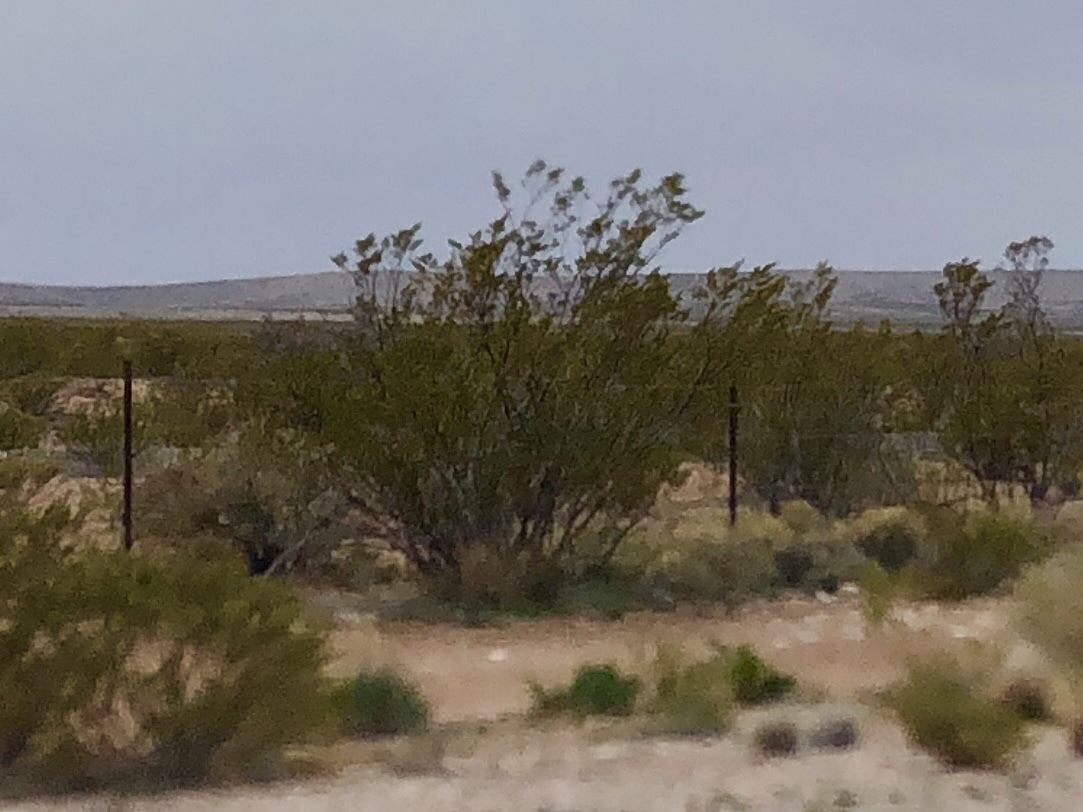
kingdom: Plantae
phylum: Tracheophyta
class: Magnoliopsida
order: Zygophyllales
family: Zygophyllaceae
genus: Larrea
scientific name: Larrea tridentata
